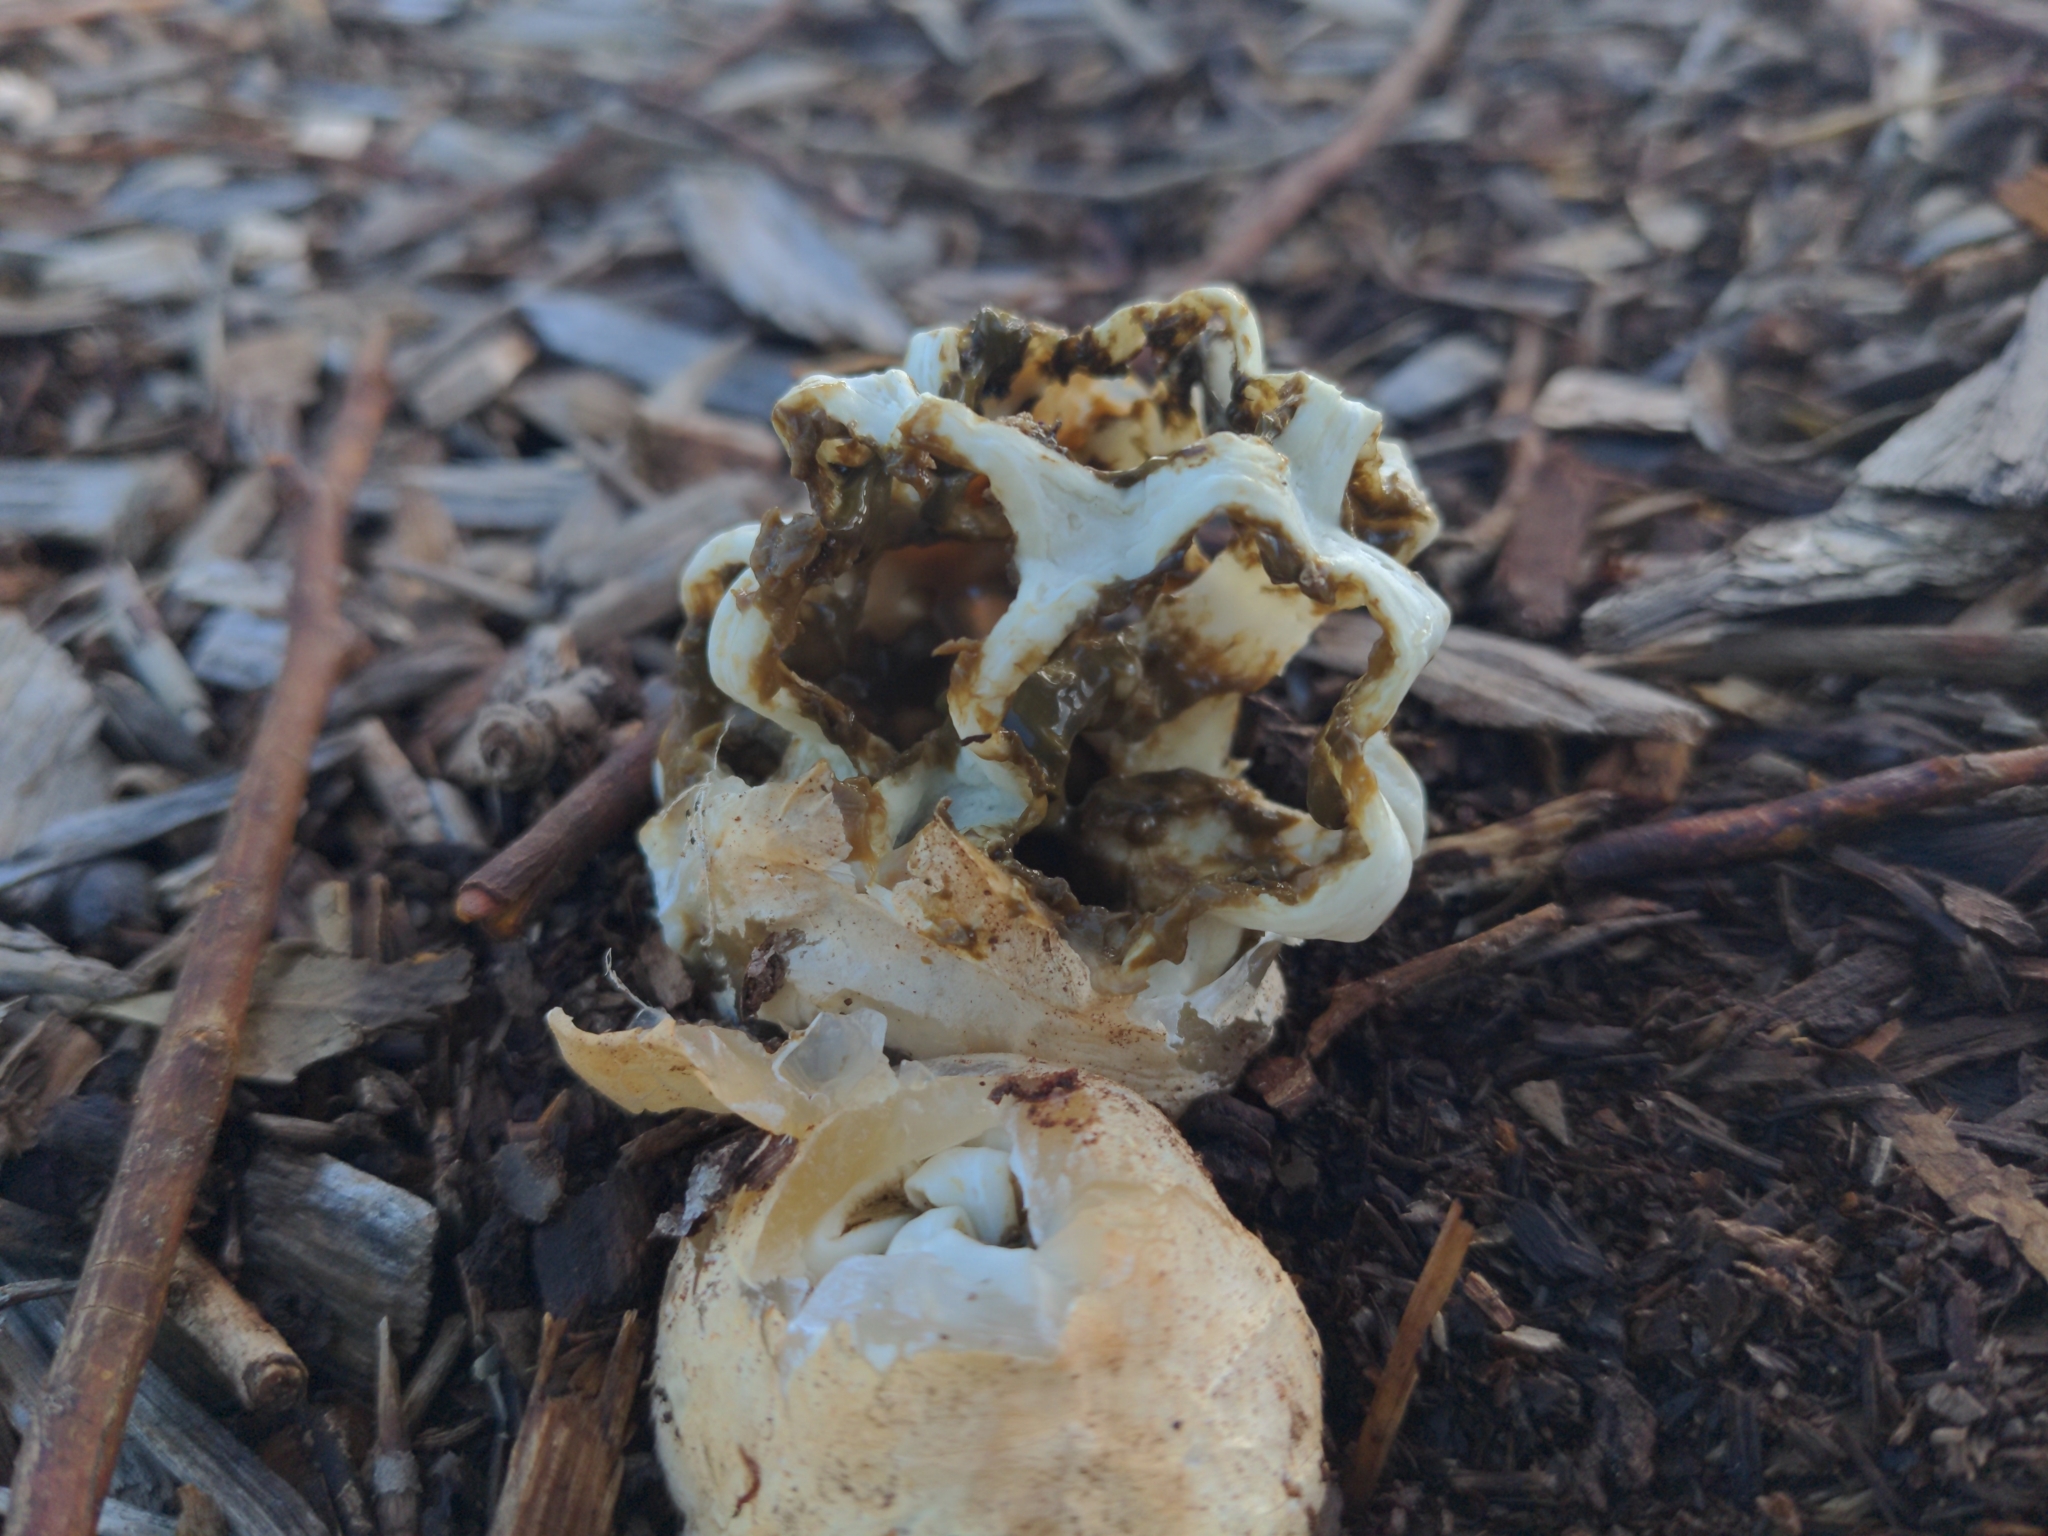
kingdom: Fungi
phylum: Basidiomycota
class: Agaricomycetes
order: Phallales
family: Phallaceae
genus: Ileodictyon
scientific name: Ileodictyon gracile
